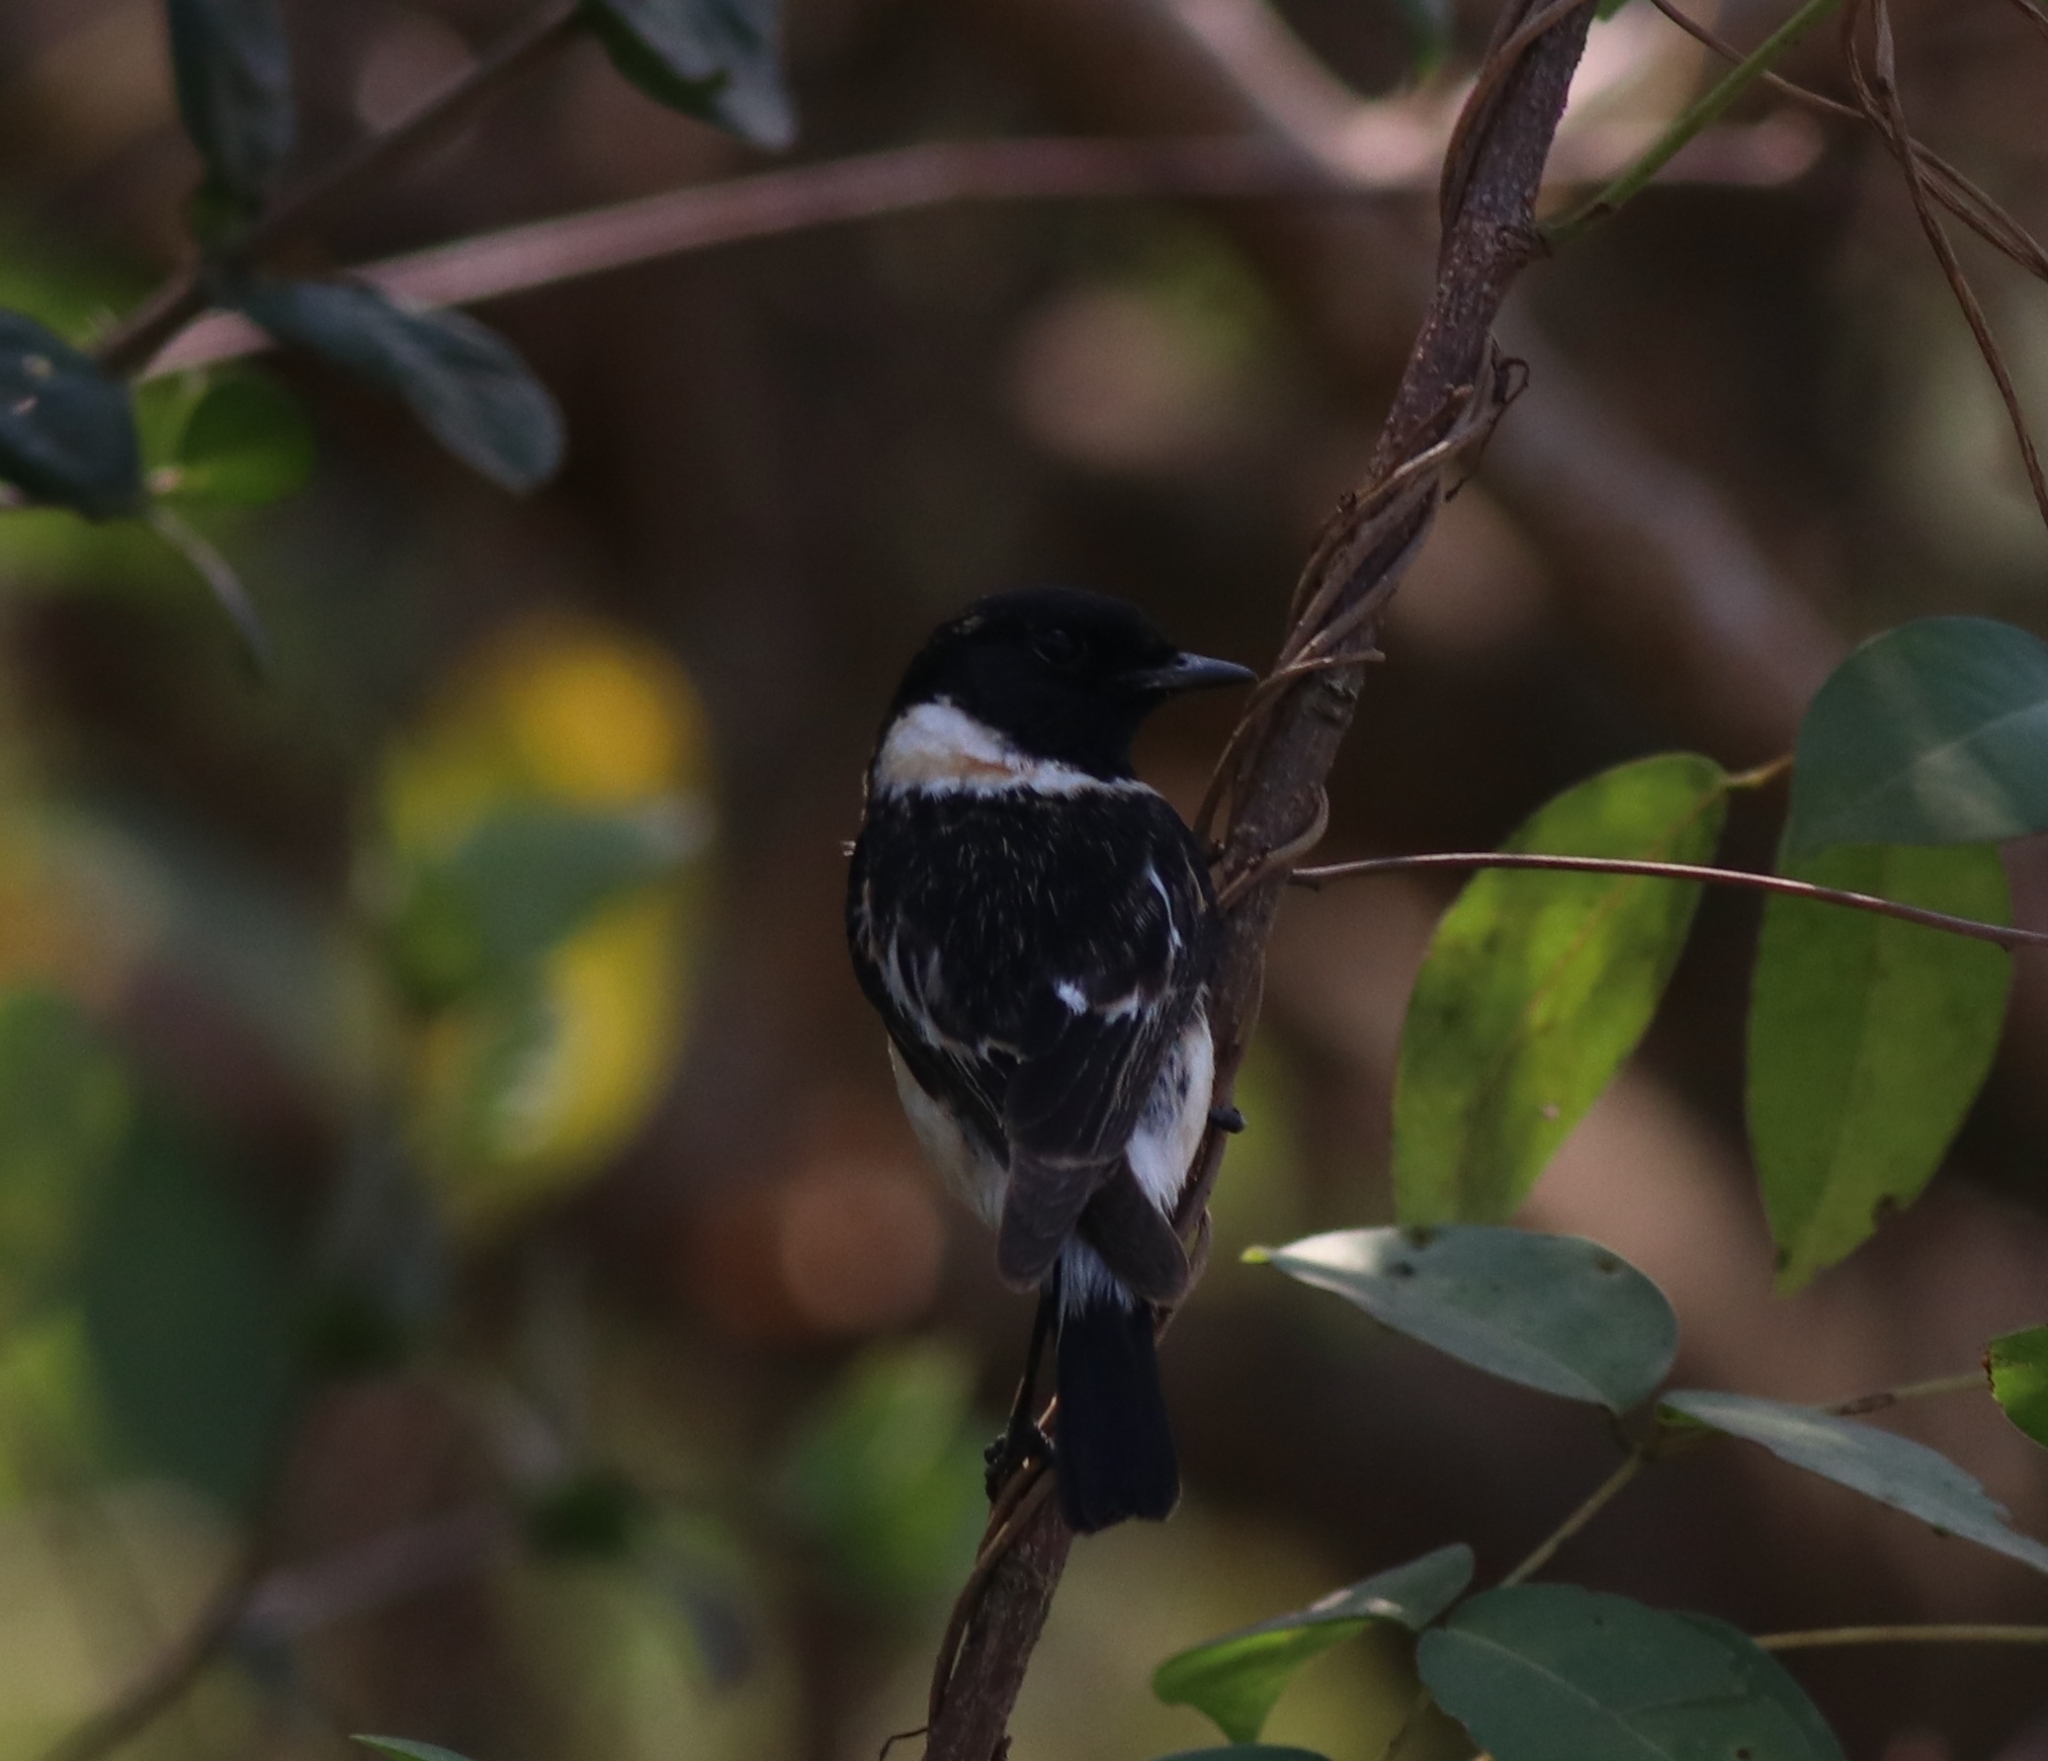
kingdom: Animalia
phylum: Chordata
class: Aves
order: Passeriformes
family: Muscicapidae
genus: Saxicola
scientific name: Saxicola maurus
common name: Siberian stonechat
